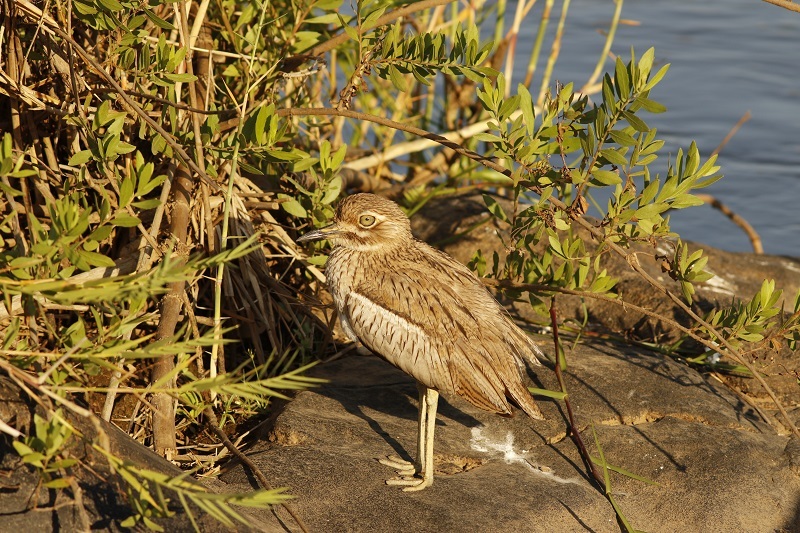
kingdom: Animalia
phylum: Chordata
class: Aves
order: Charadriiformes
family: Burhinidae
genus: Burhinus
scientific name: Burhinus vermiculatus
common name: Water thick-knee
